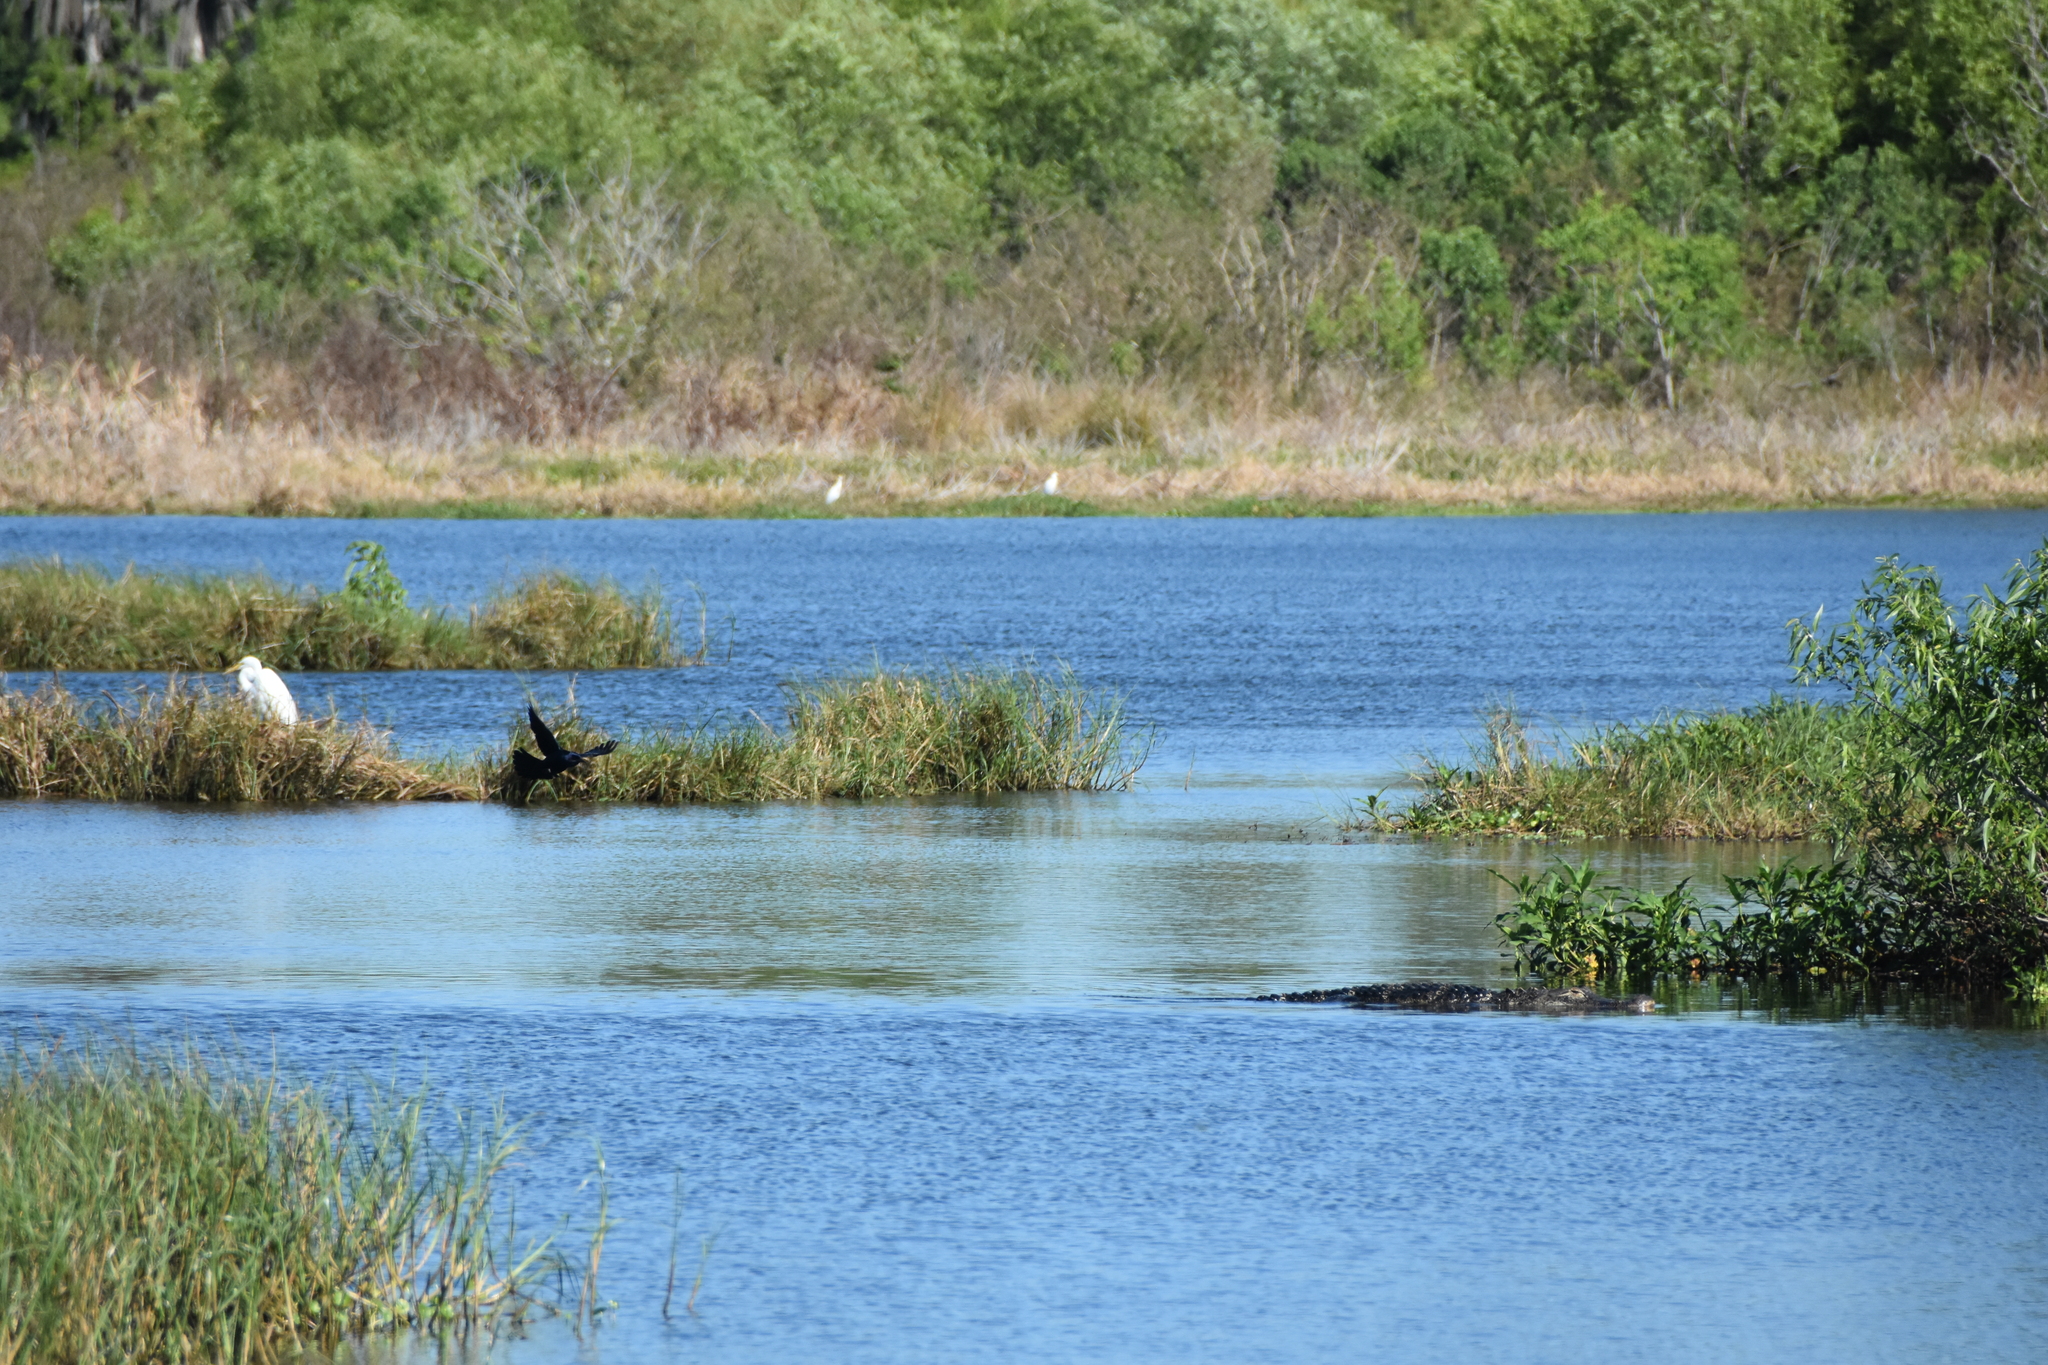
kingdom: Animalia
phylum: Chordata
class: Crocodylia
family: Alligatoridae
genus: Alligator
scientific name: Alligator mississippiensis
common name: American alligator
